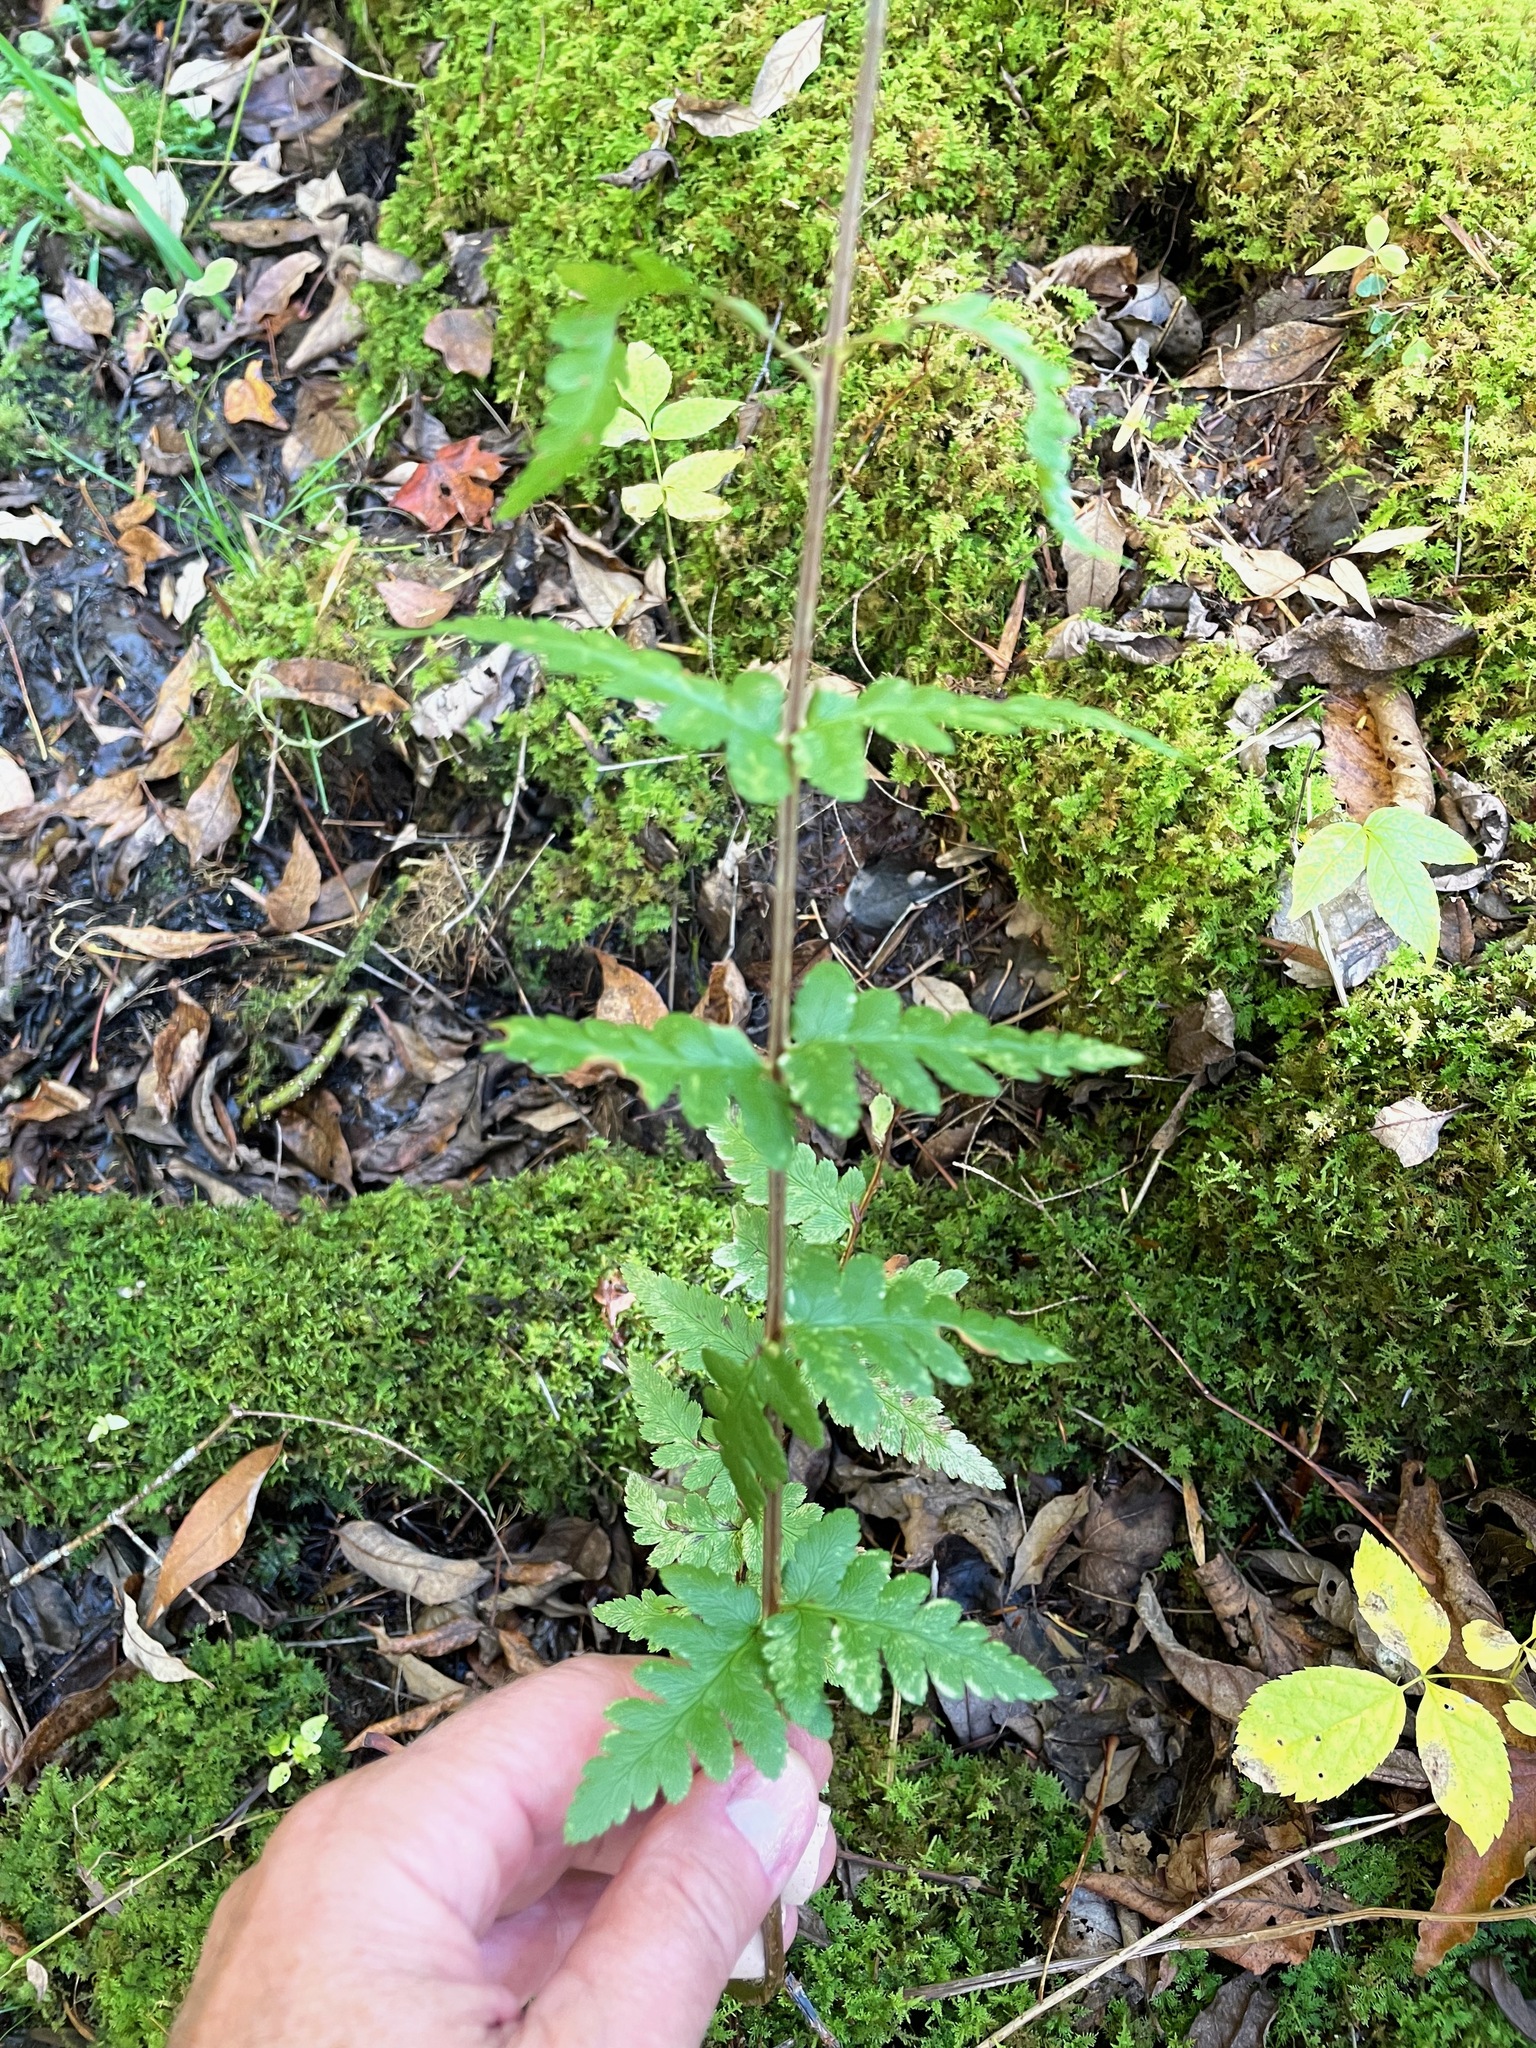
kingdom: Plantae
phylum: Tracheophyta
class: Polypodiopsida
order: Polypodiales
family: Dryopteridaceae
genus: Dryopteris
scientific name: Dryopteris cristata
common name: Crested wood fern
